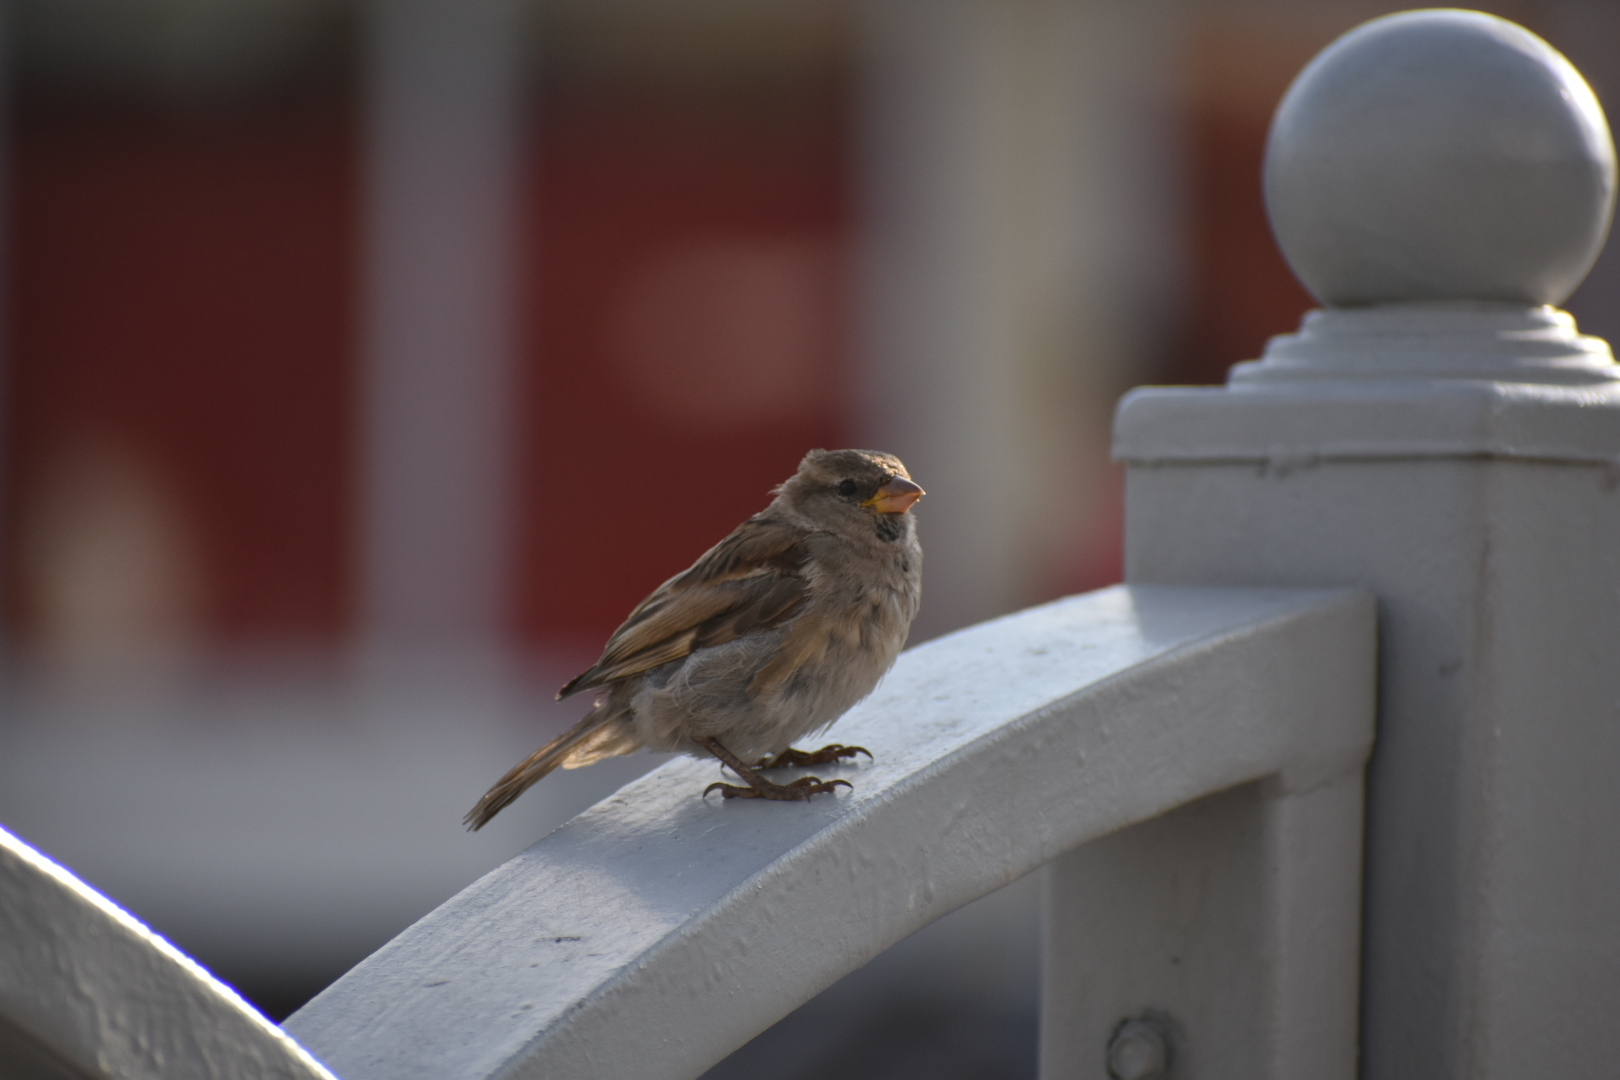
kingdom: Animalia
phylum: Chordata
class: Aves
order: Passeriformes
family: Passeridae
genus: Passer
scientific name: Passer domesticus
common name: House sparrow
